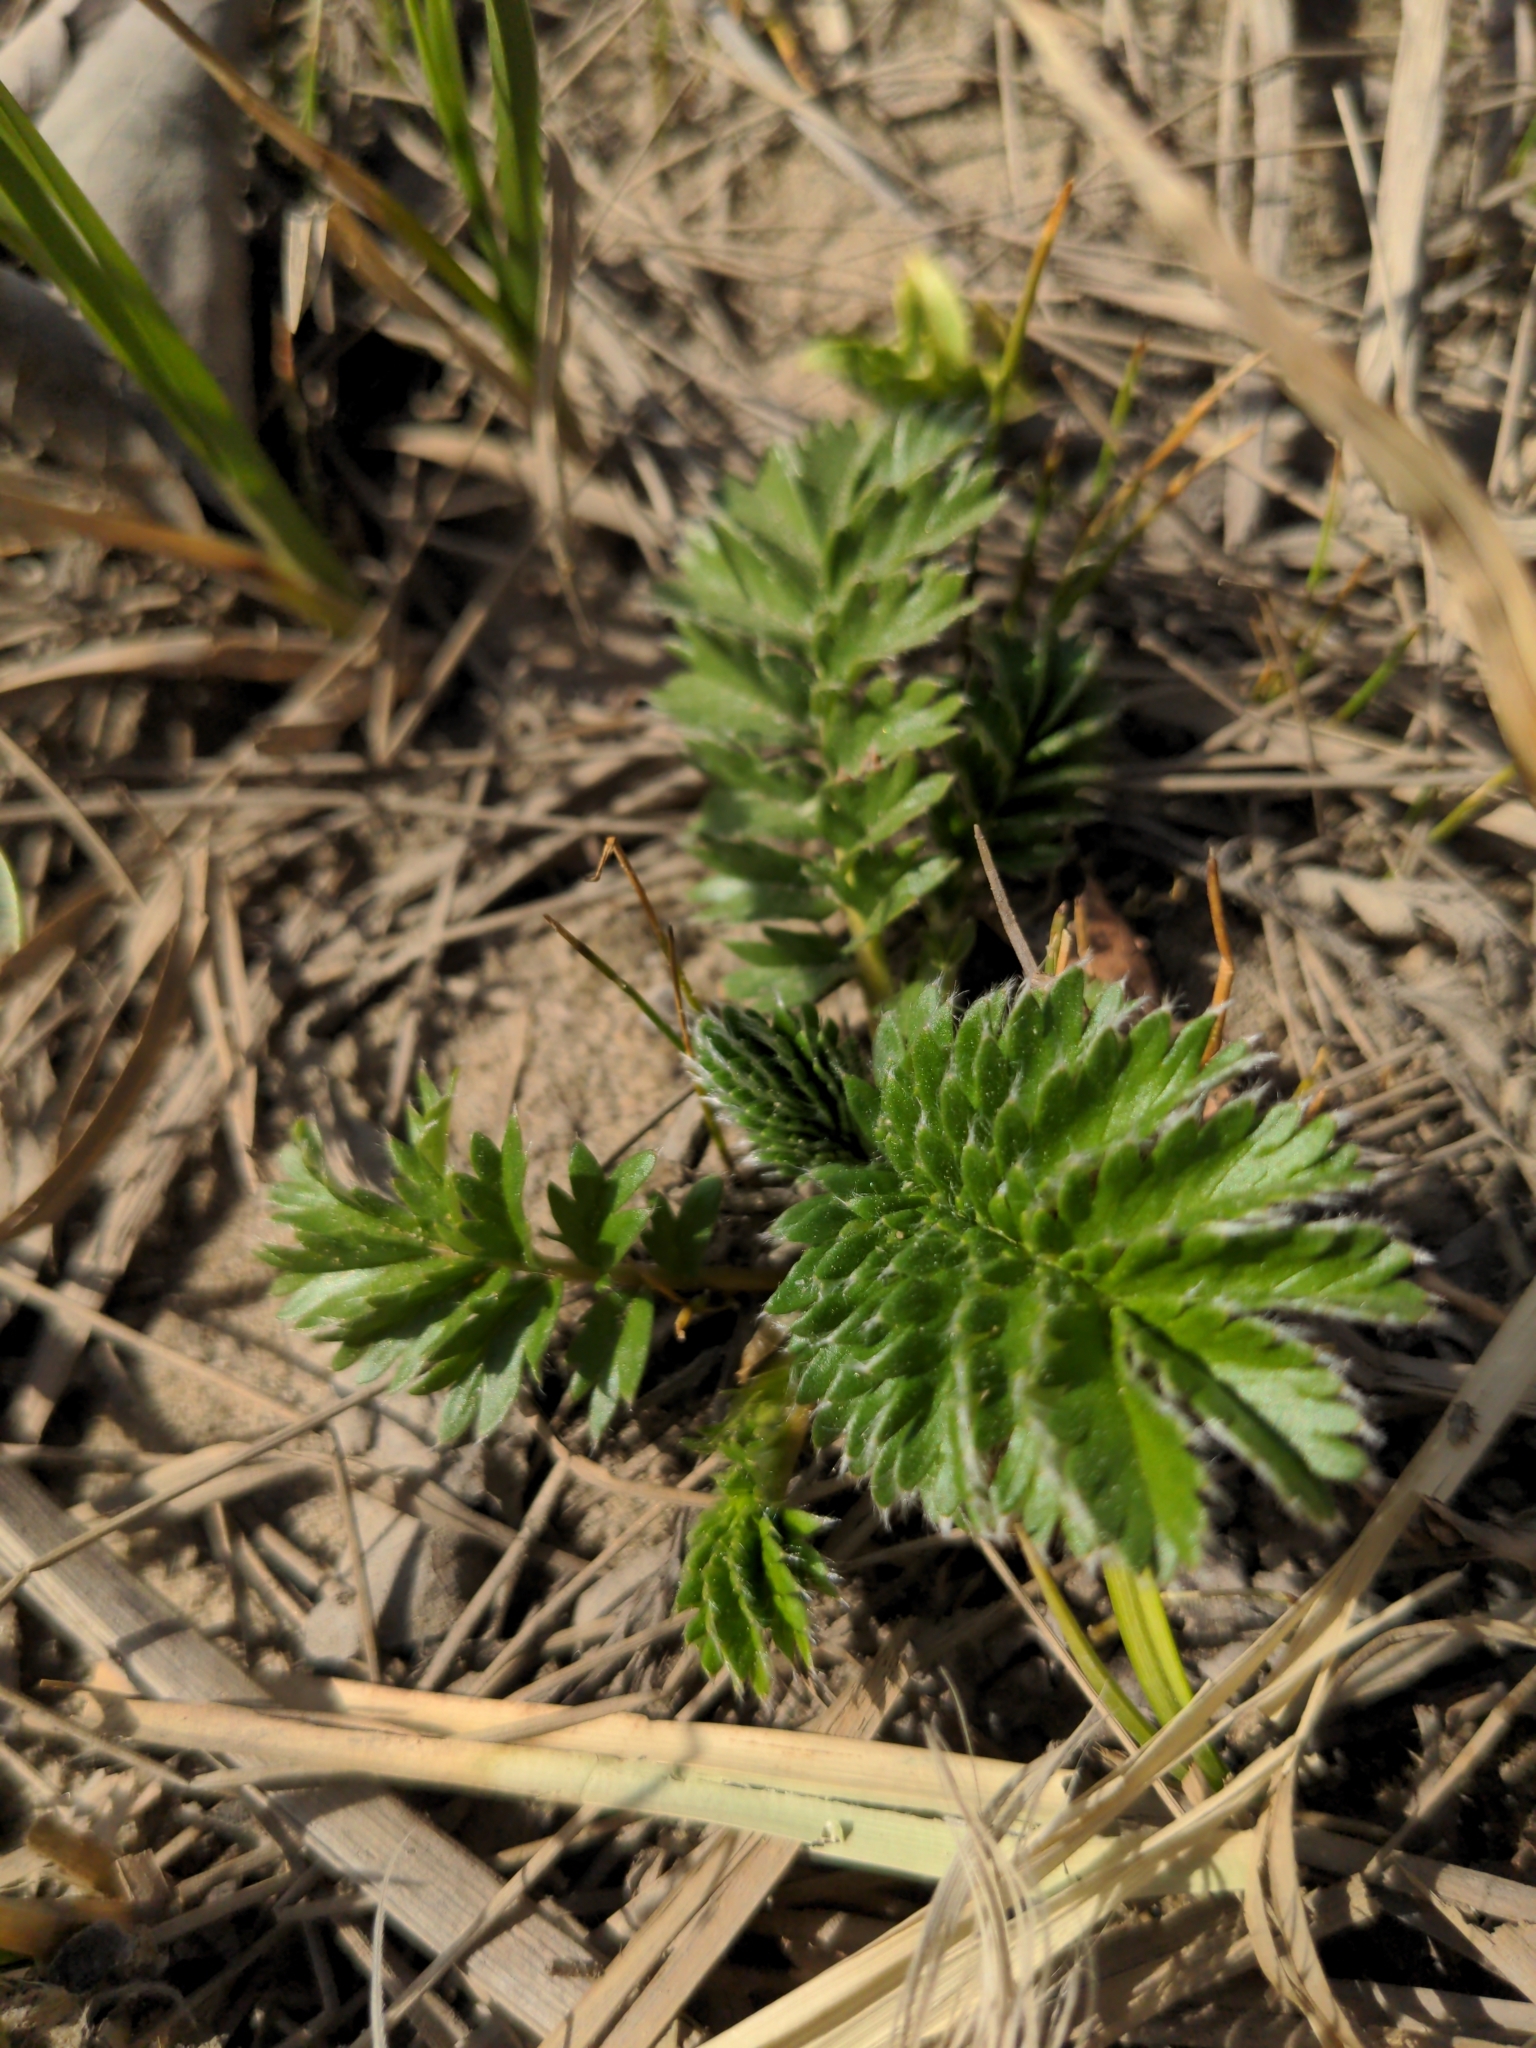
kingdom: Plantae
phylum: Tracheophyta
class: Magnoliopsida
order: Rosales
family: Rosaceae
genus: Argentina
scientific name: Argentina anserina
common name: Common silverweed
